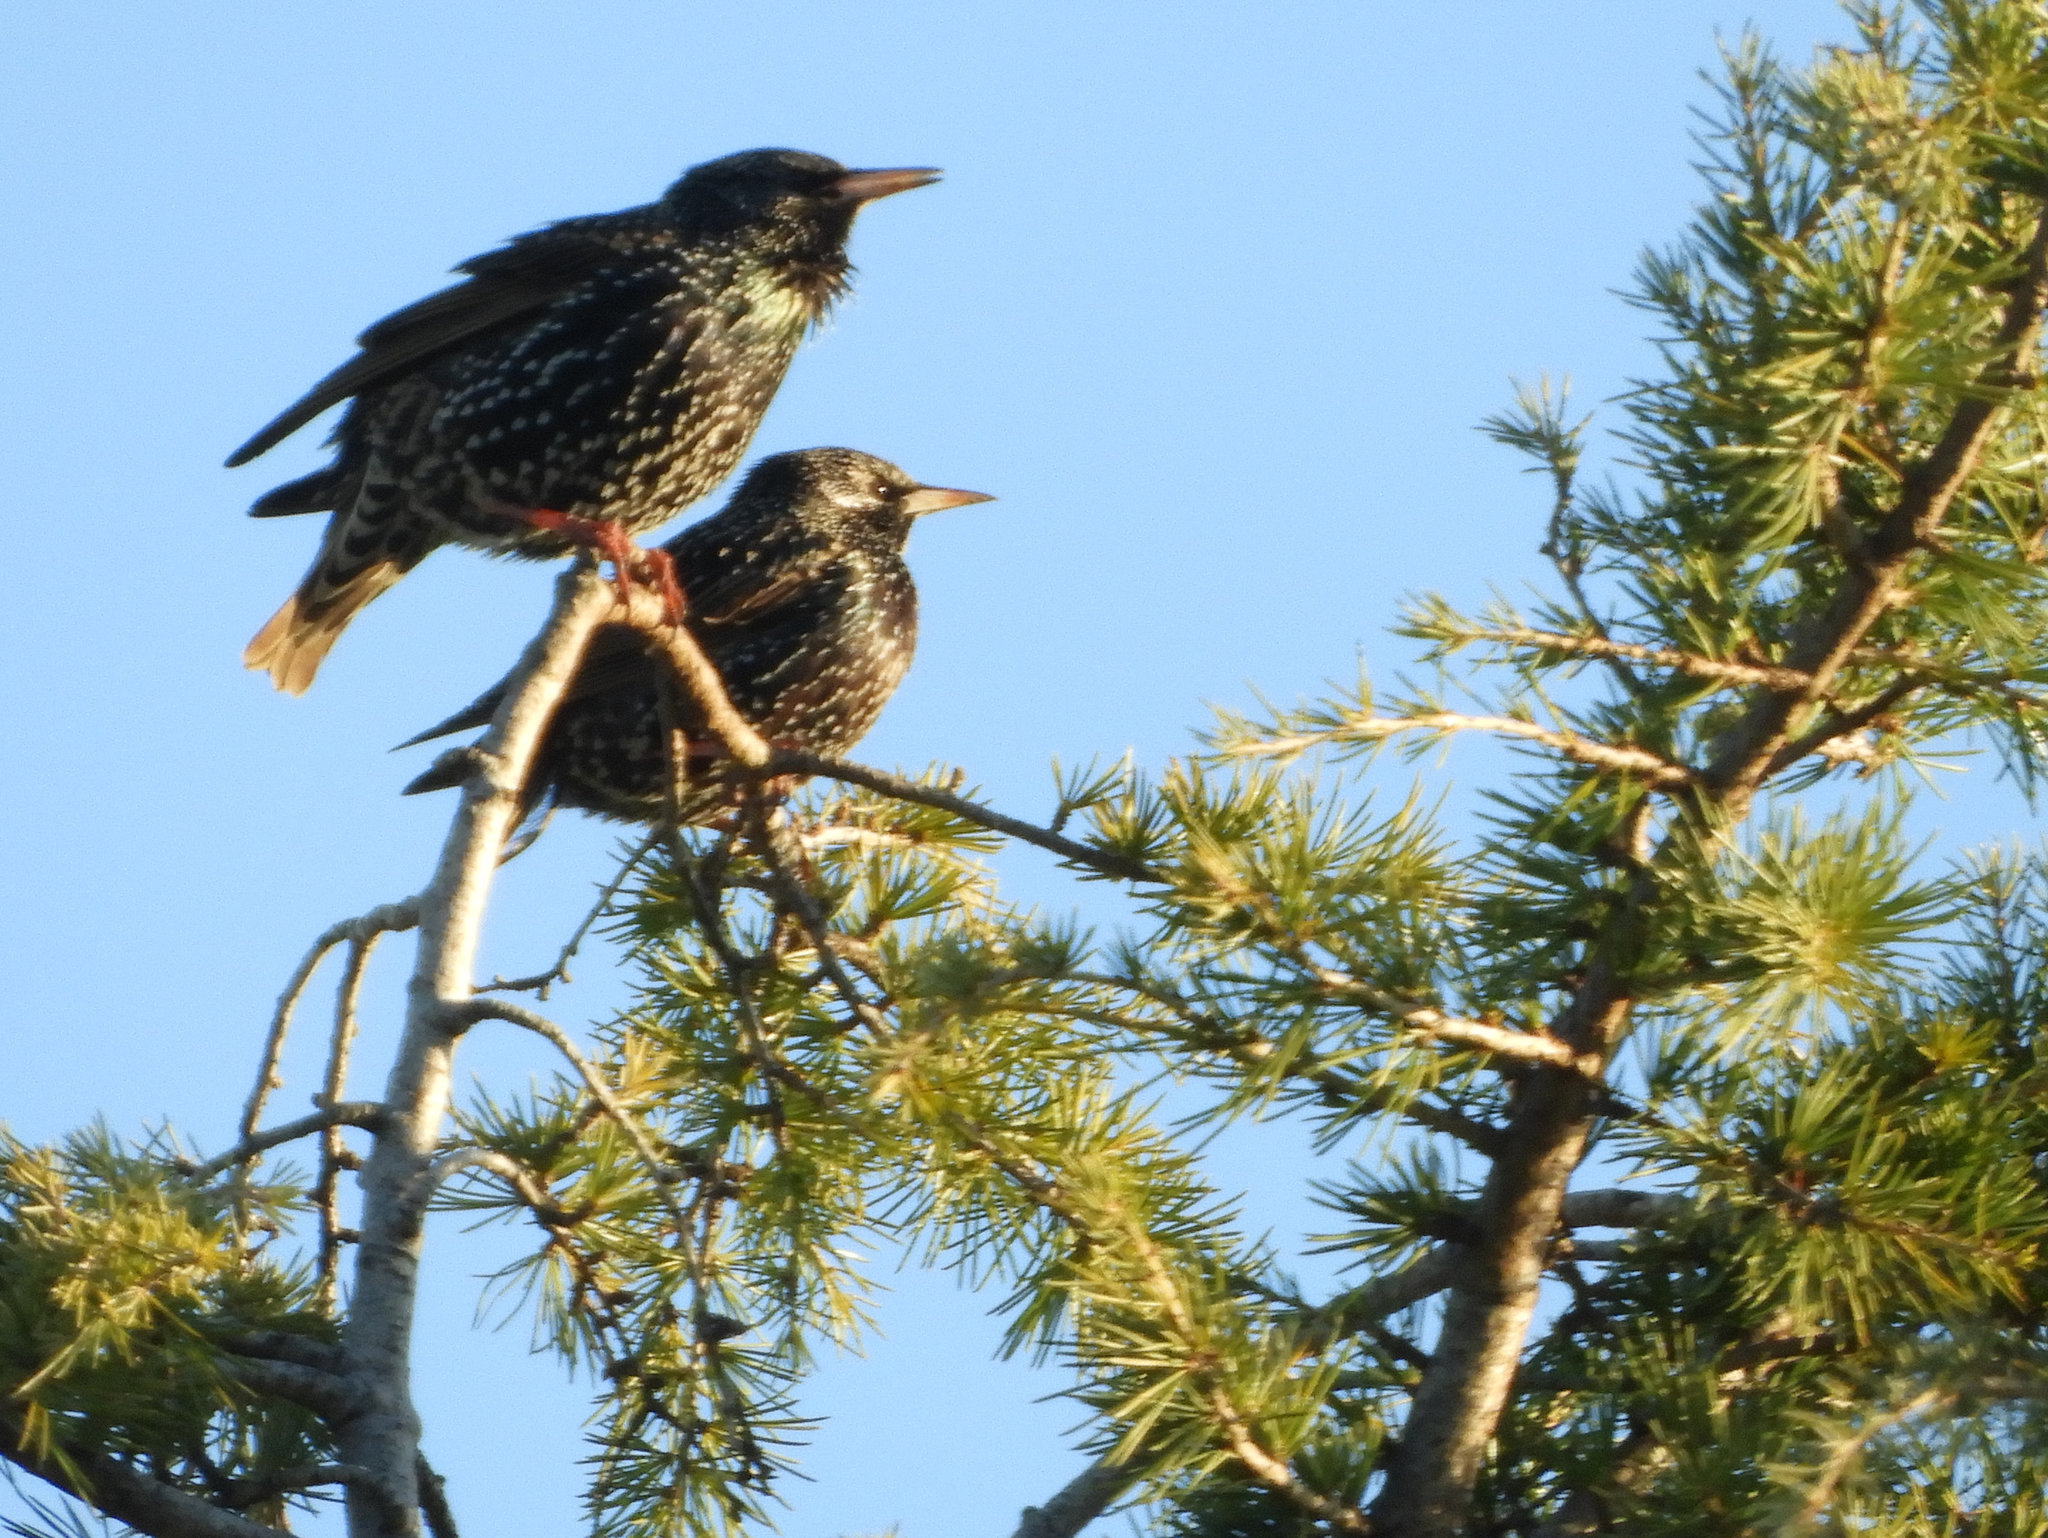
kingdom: Animalia
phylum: Chordata
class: Aves
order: Passeriformes
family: Sturnidae
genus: Sturnus
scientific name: Sturnus vulgaris
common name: Common starling
